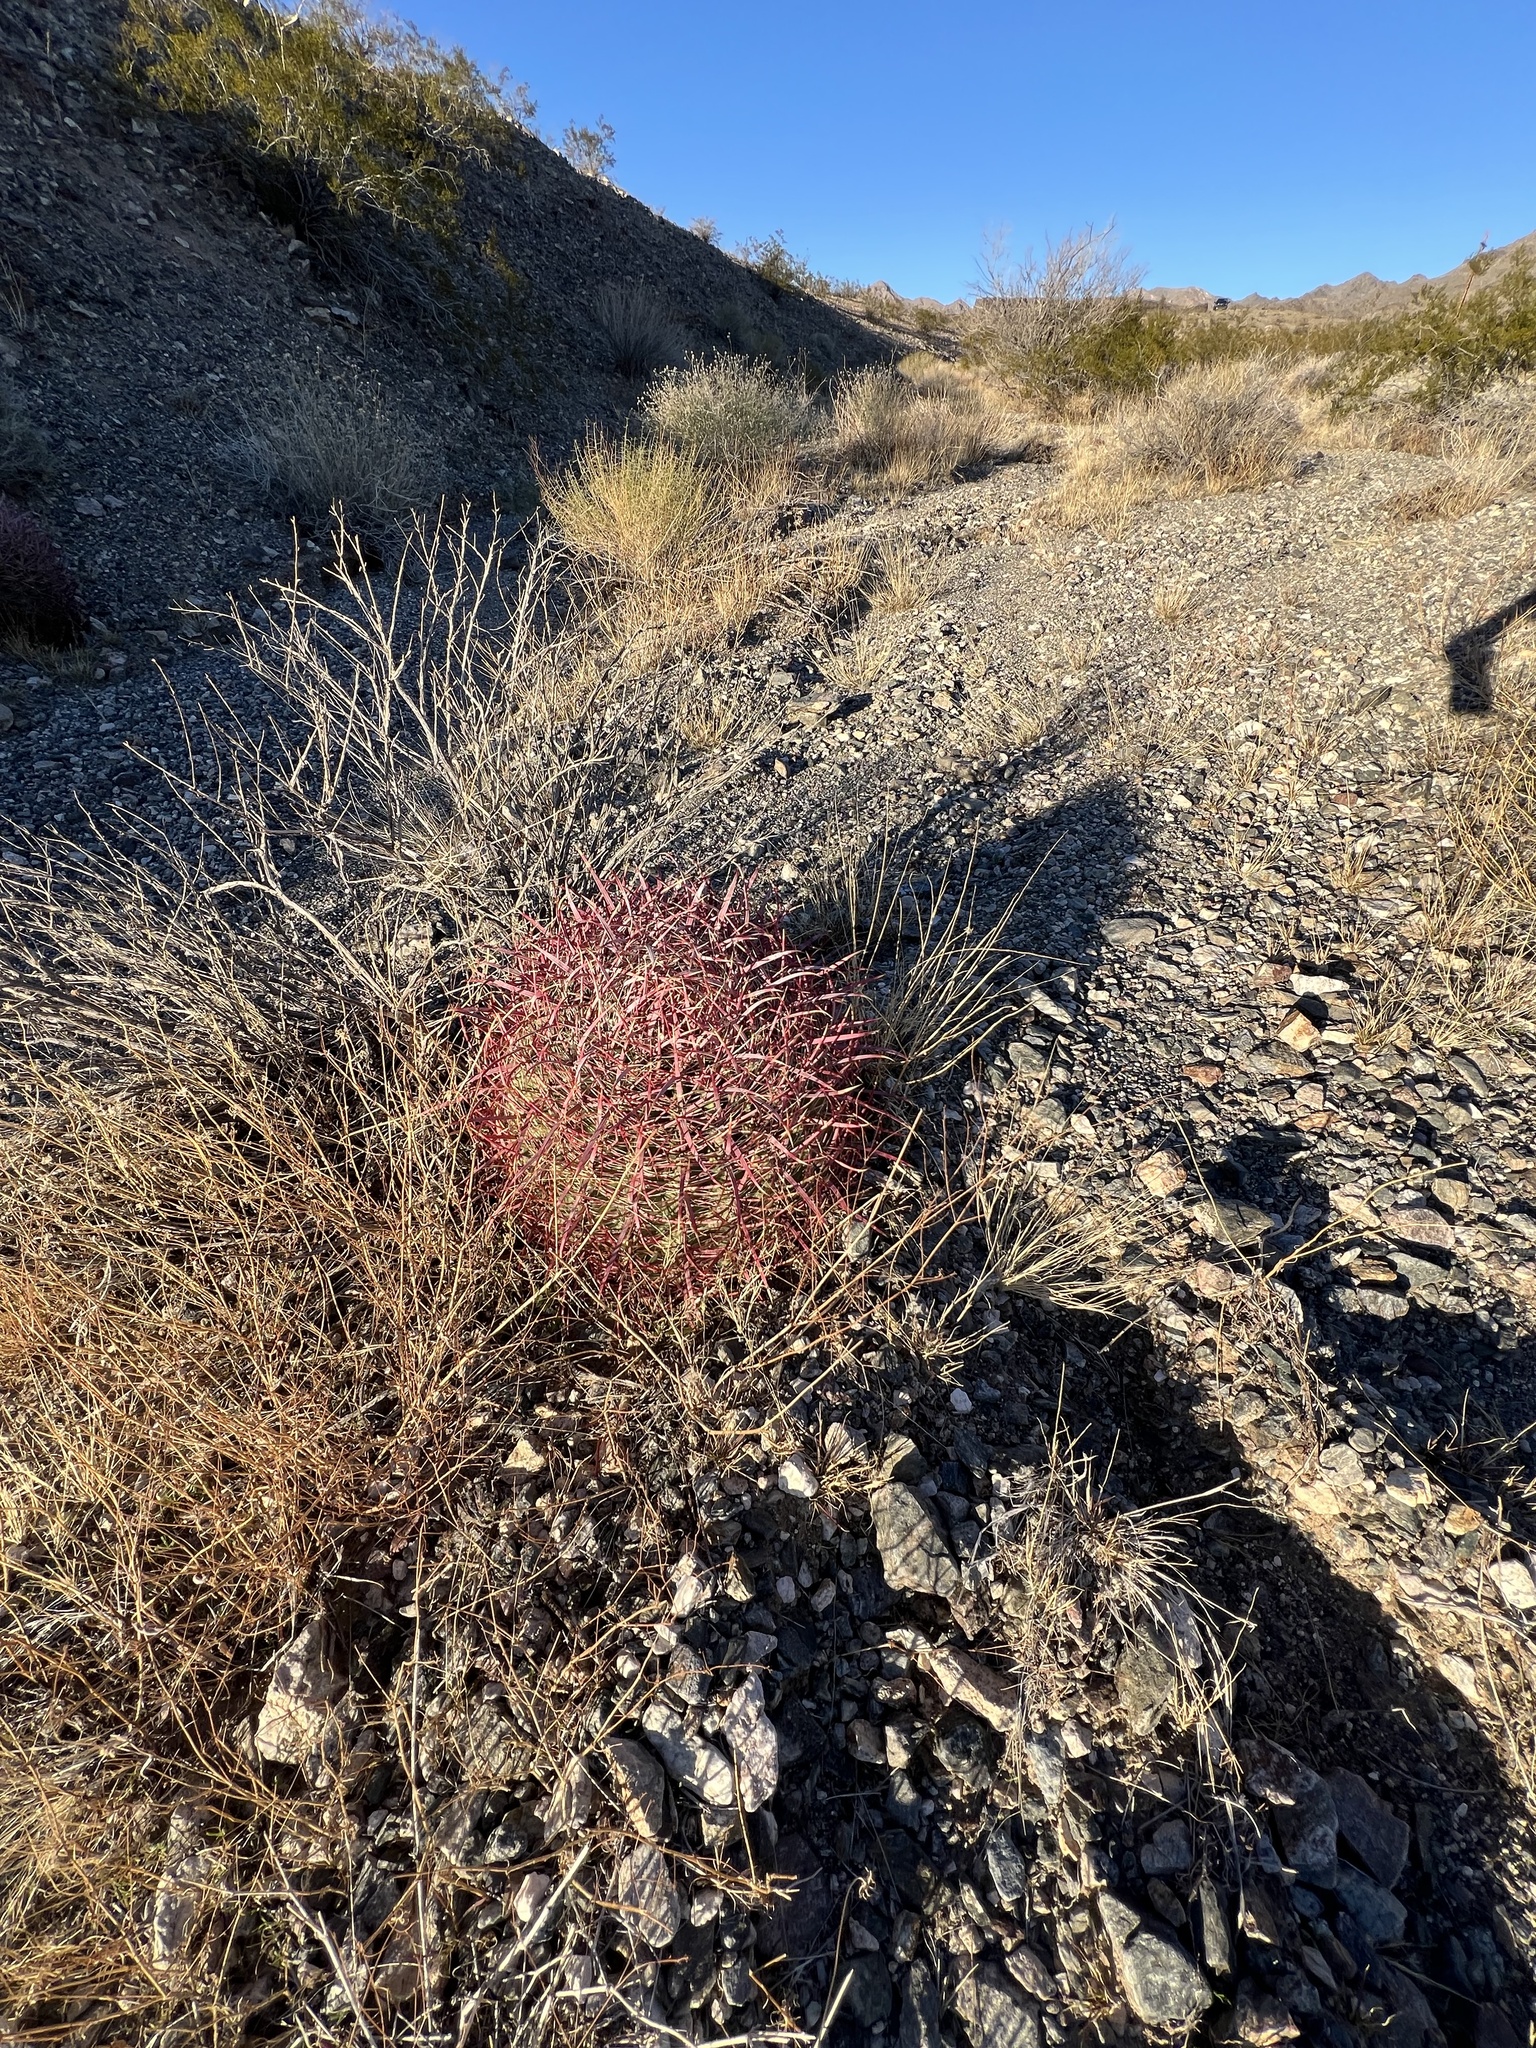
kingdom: Plantae
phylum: Tracheophyta
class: Magnoliopsida
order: Caryophyllales
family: Cactaceae
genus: Ferocactus
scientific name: Ferocactus cylindraceus
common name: California barrel cactus
